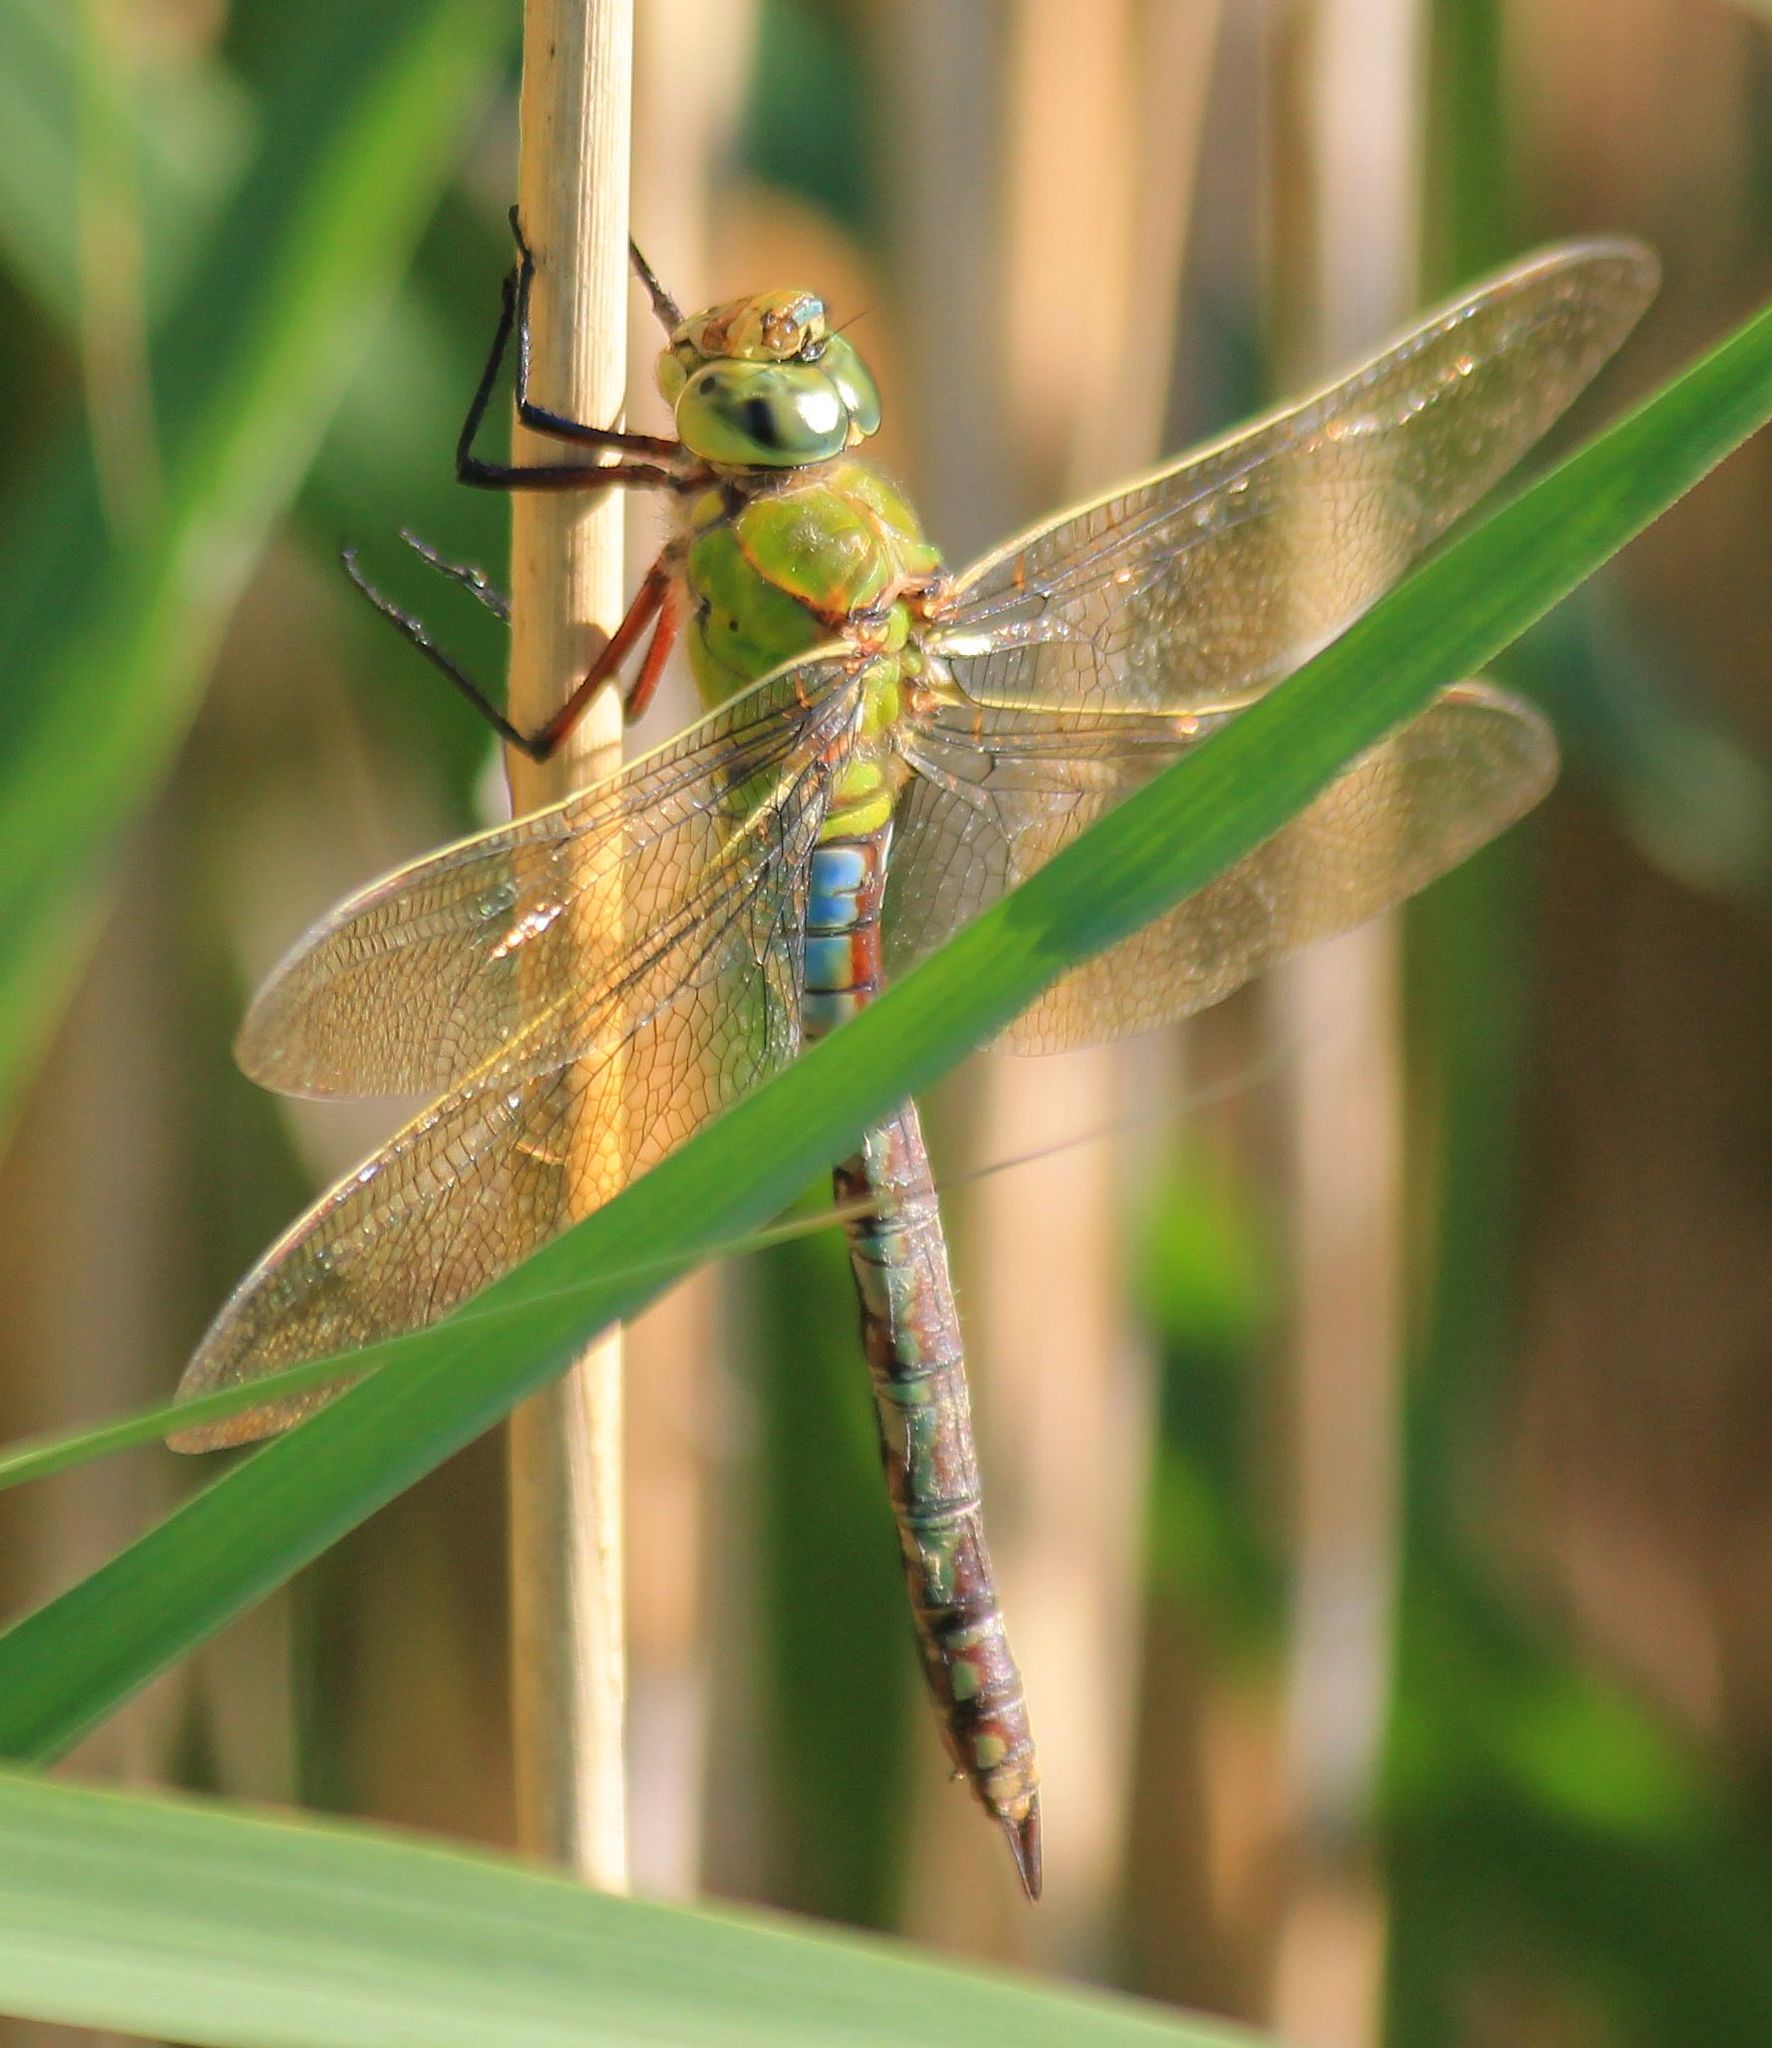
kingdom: Animalia
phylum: Arthropoda
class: Insecta
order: Odonata
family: Aeshnidae
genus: Anax
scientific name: Anax imperator
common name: Emperor dragonfly
